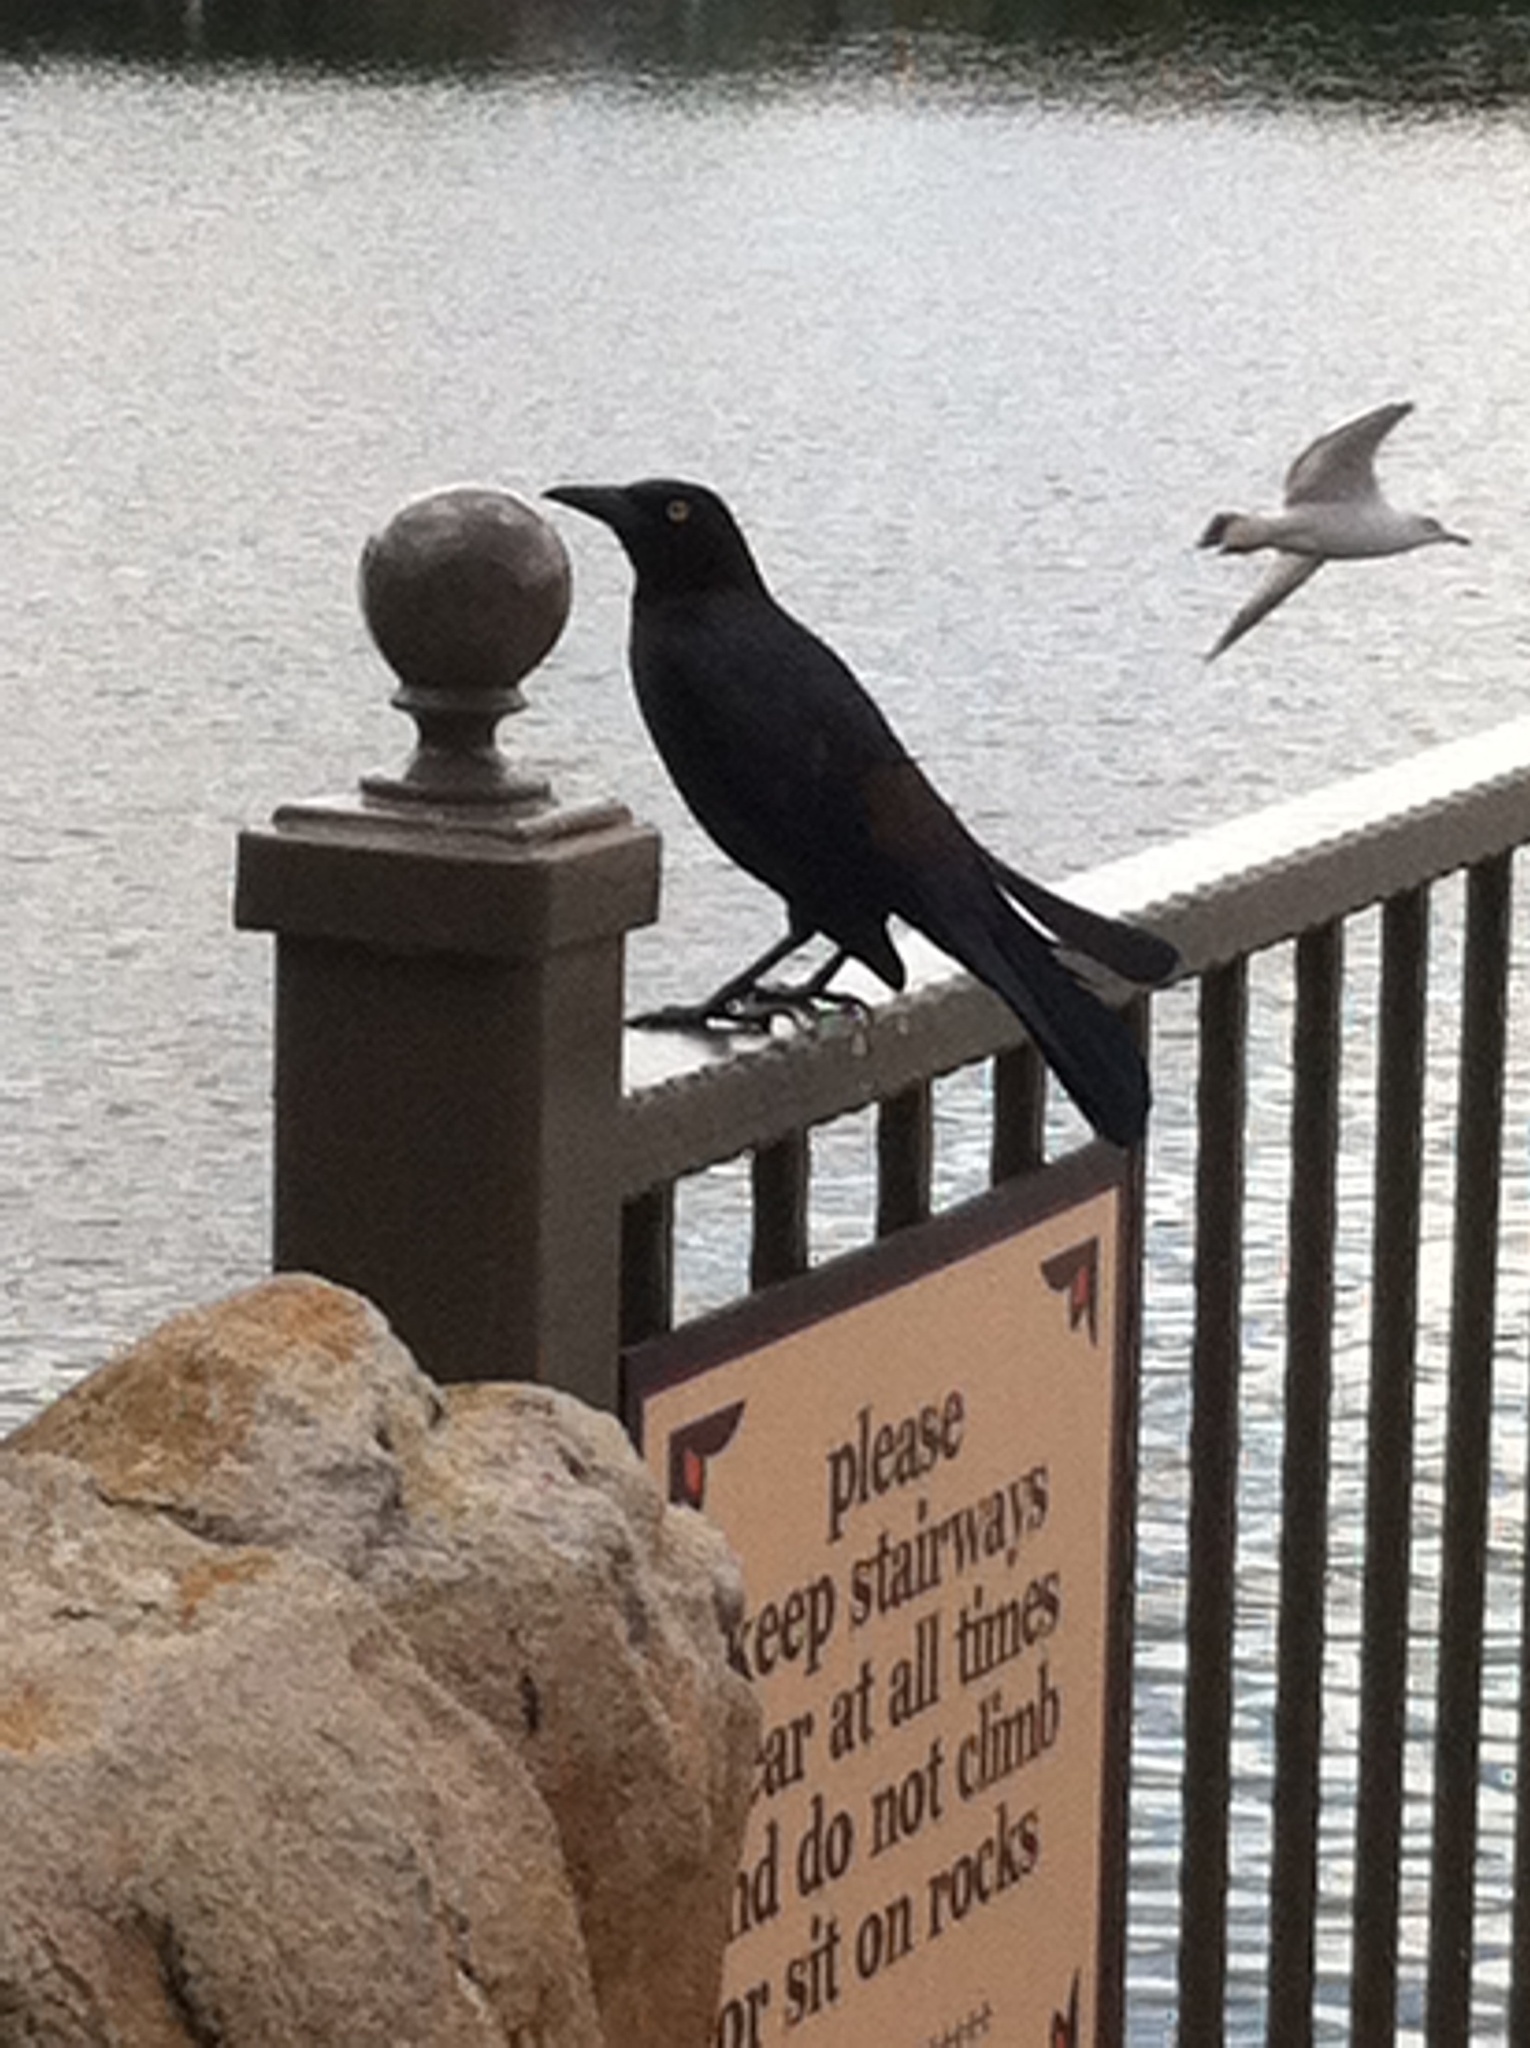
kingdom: Animalia
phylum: Chordata
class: Aves
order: Passeriformes
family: Icteridae
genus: Quiscalus
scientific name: Quiscalus quiscula
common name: Common grackle
